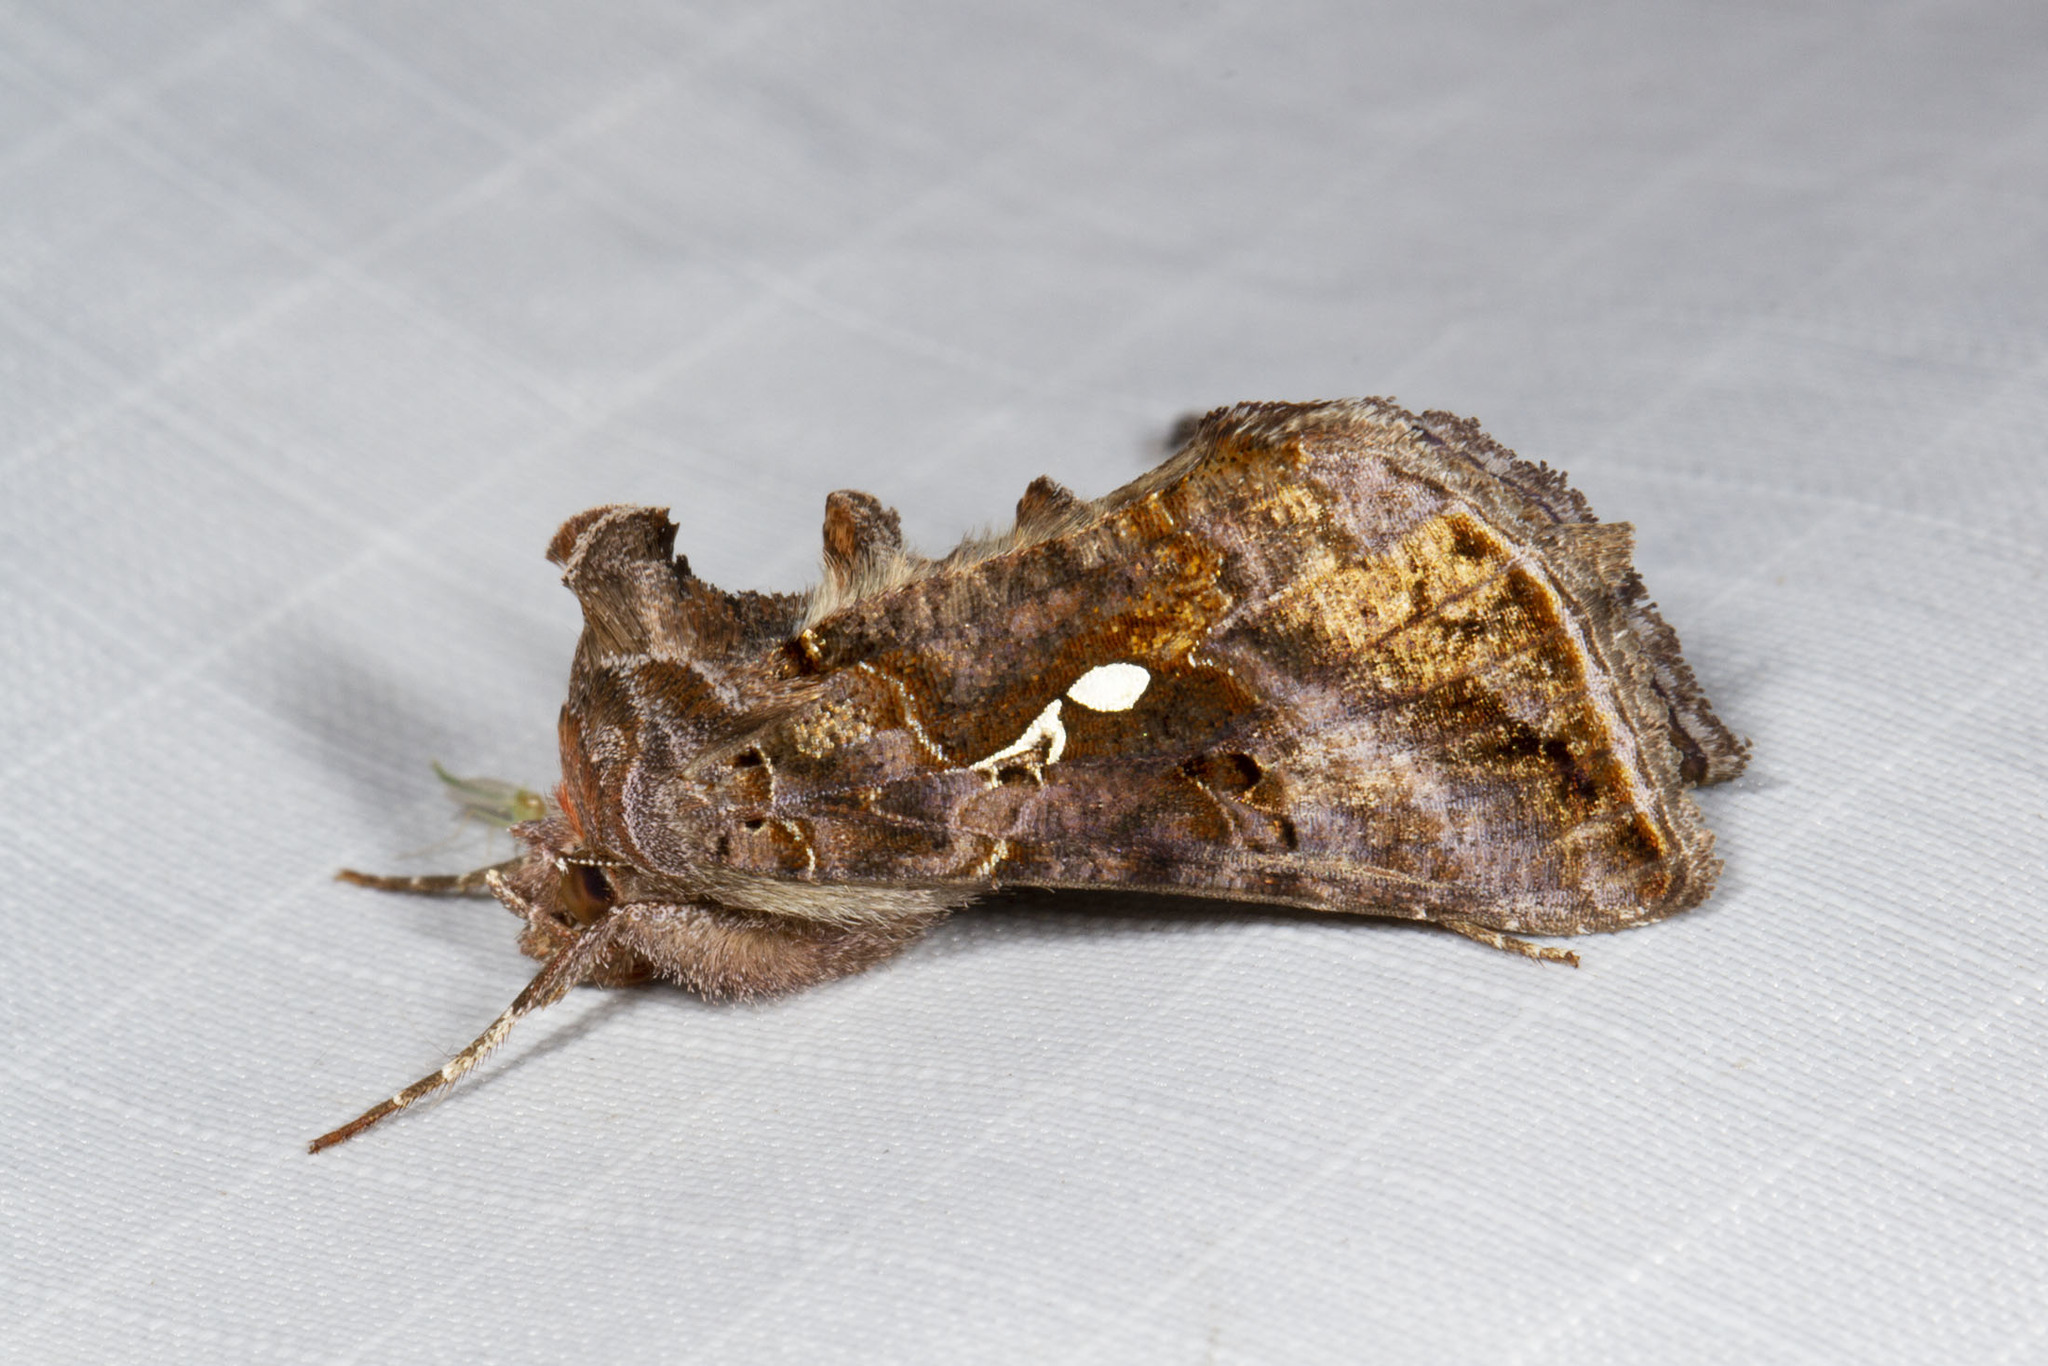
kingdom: Animalia
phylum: Arthropoda
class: Insecta
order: Lepidoptera
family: Noctuidae
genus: Autographa
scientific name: Autographa precationis
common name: Common looper moth
